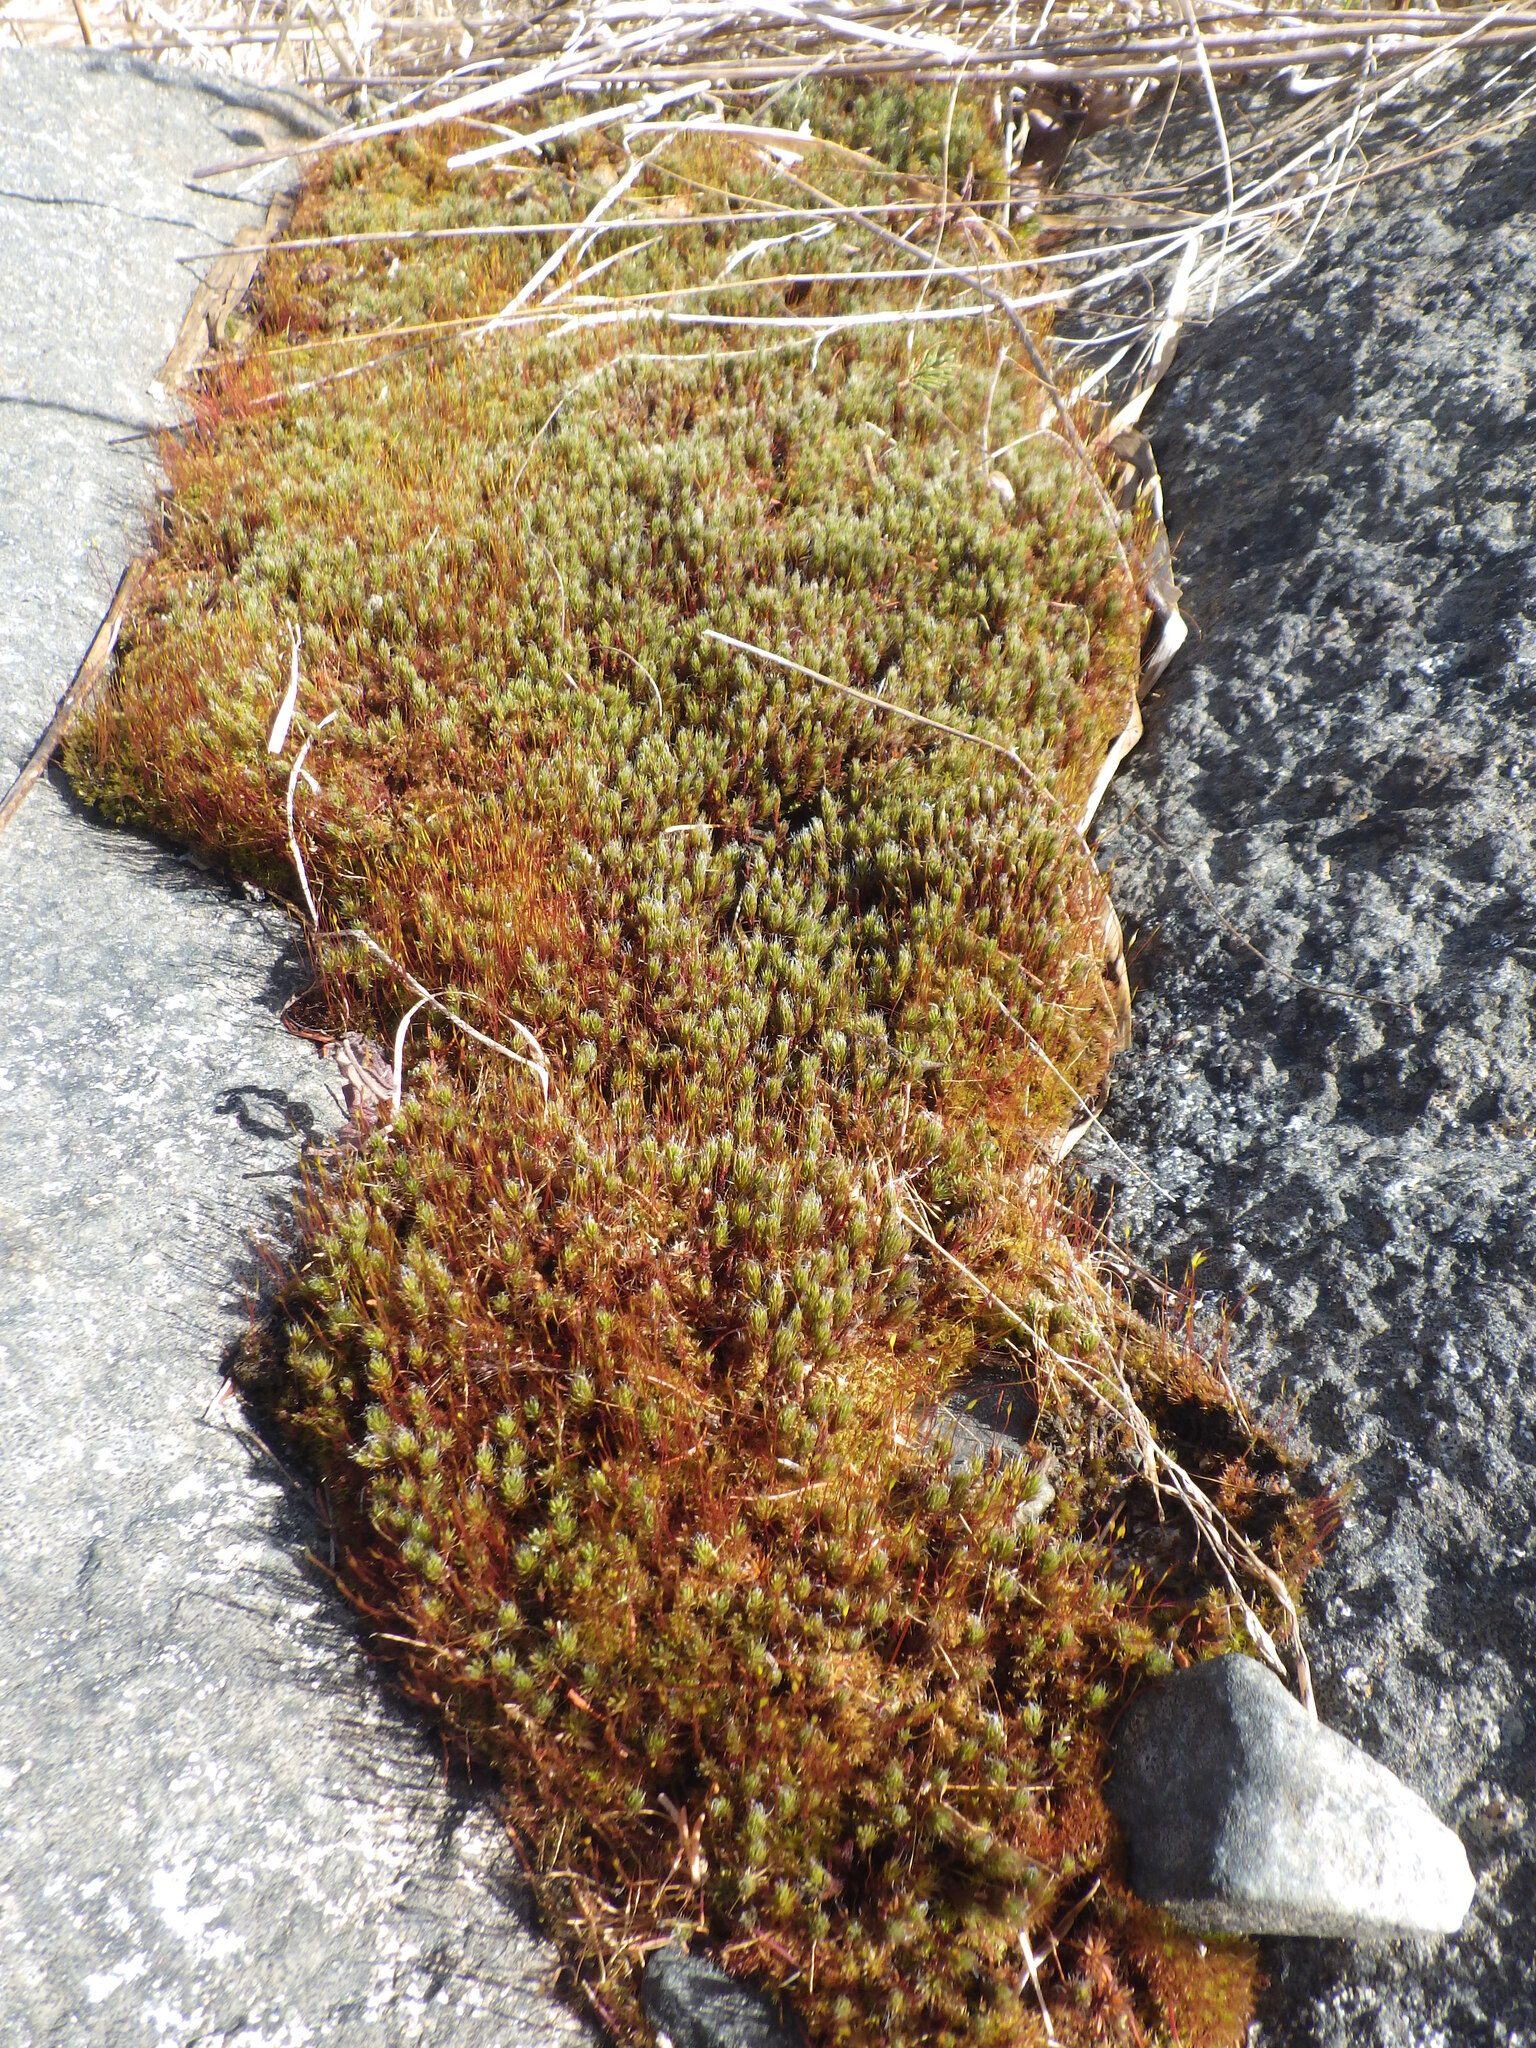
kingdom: Plantae
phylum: Bryophyta
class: Polytrichopsida
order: Polytrichales
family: Polytrichaceae
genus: Polytrichum
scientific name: Polytrichum piliferum
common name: Bristly haircap
